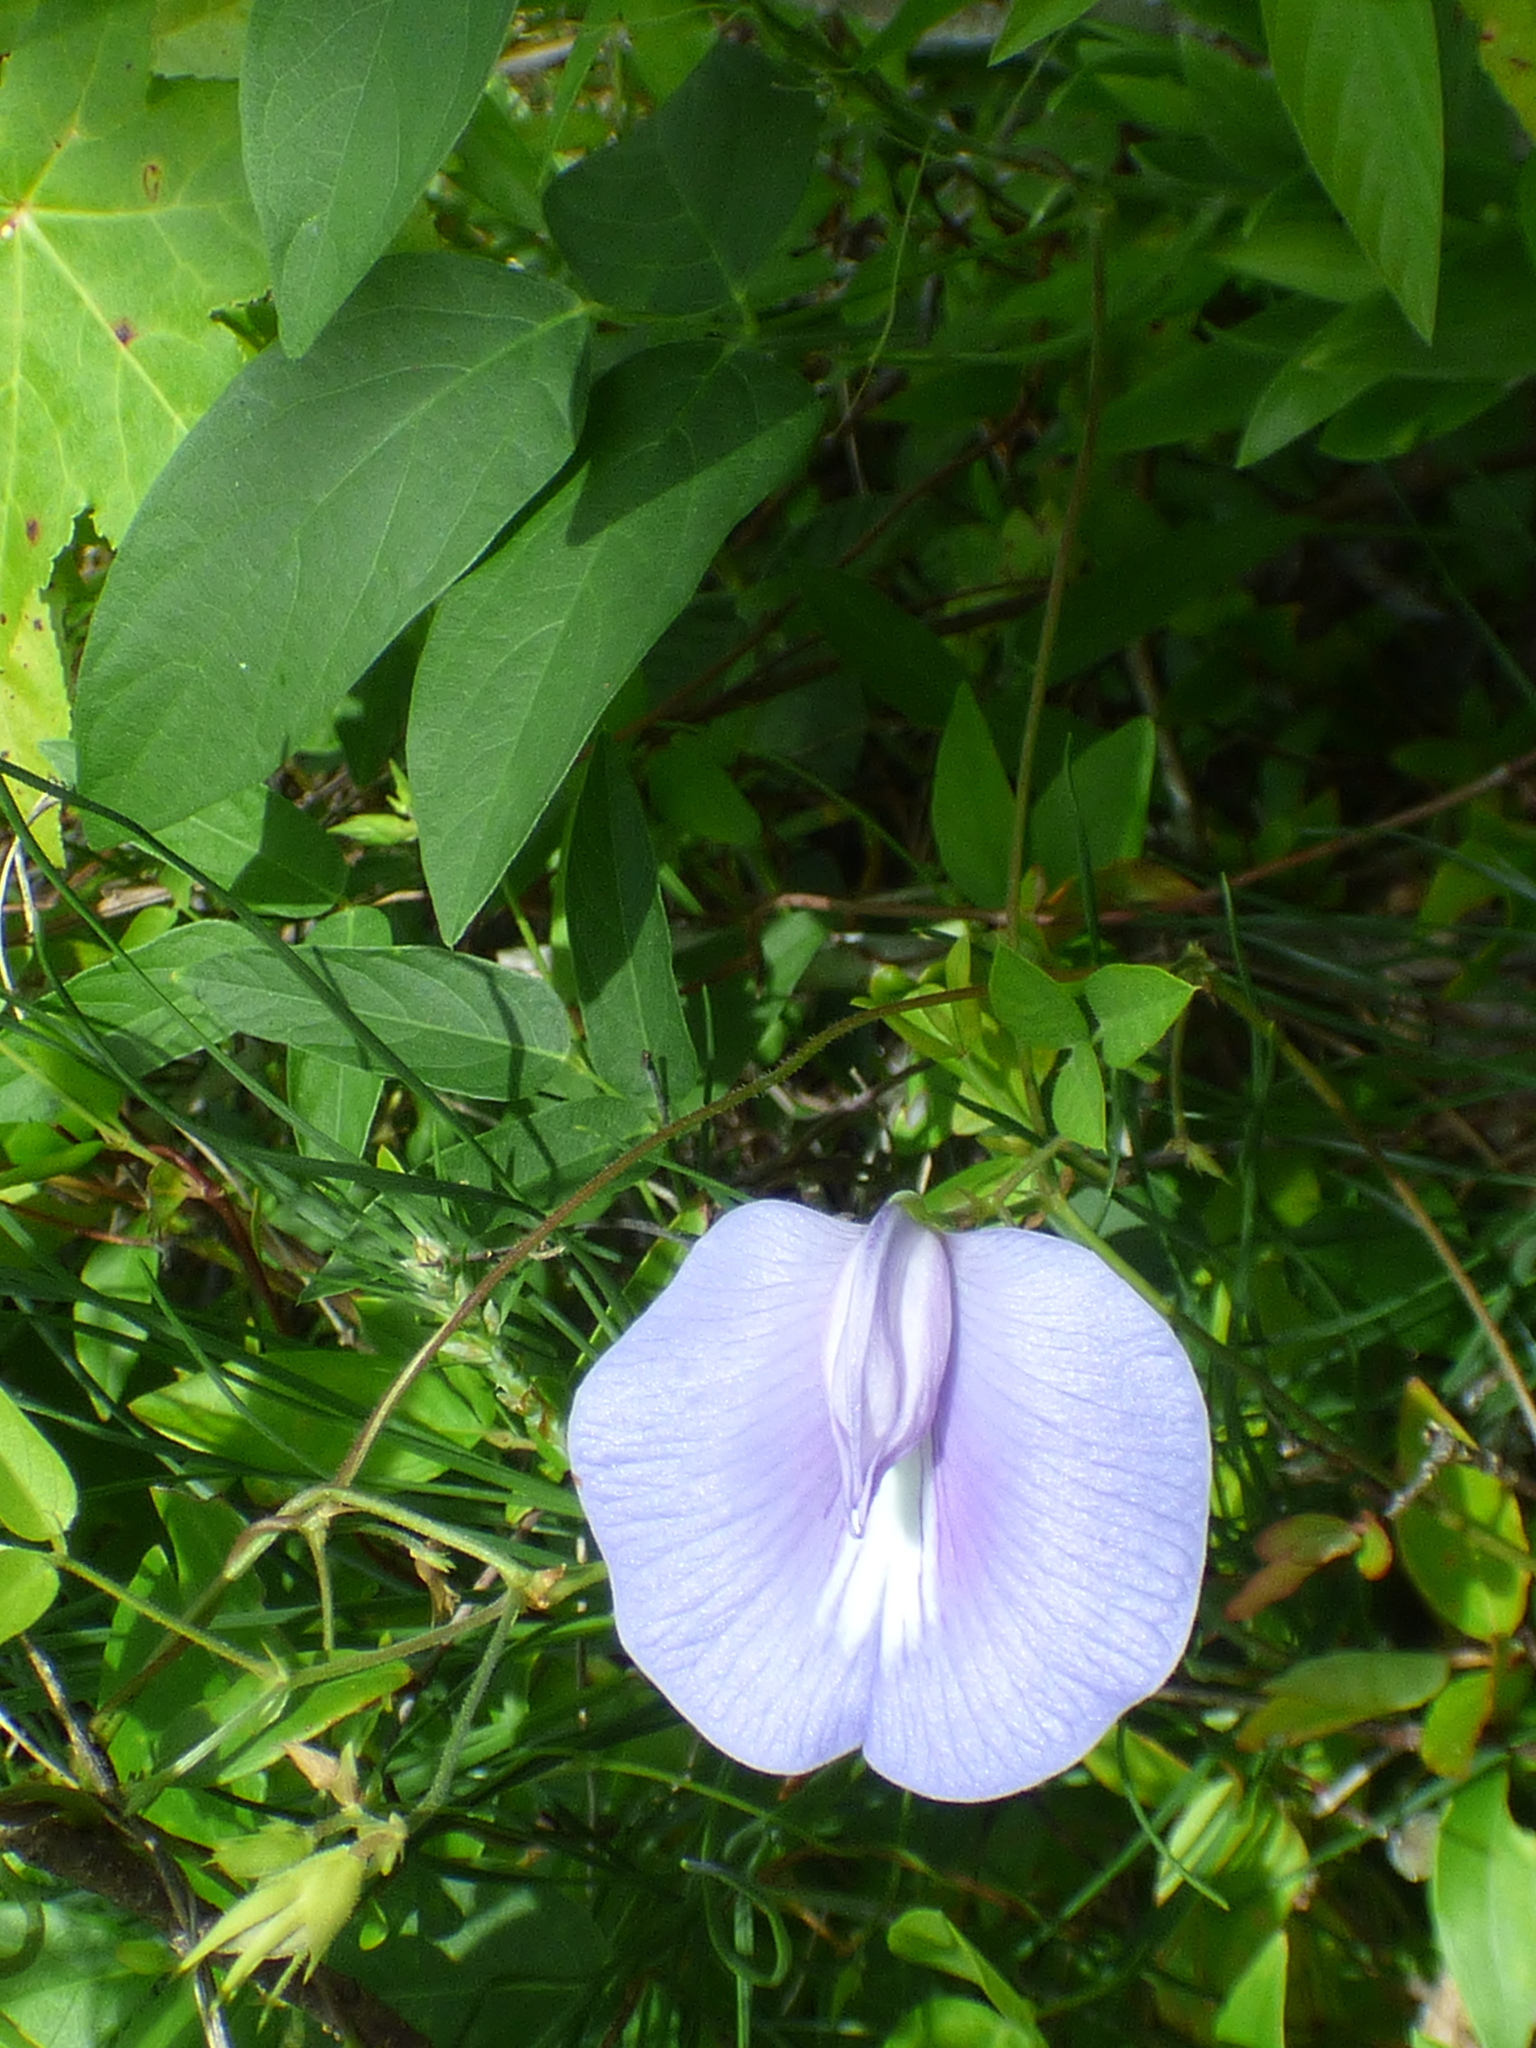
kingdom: Plantae
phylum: Tracheophyta
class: Magnoliopsida
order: Fabales
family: Fabaceae
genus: Centrosema
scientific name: Centrosema virginianum
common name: Butterfly-pea
